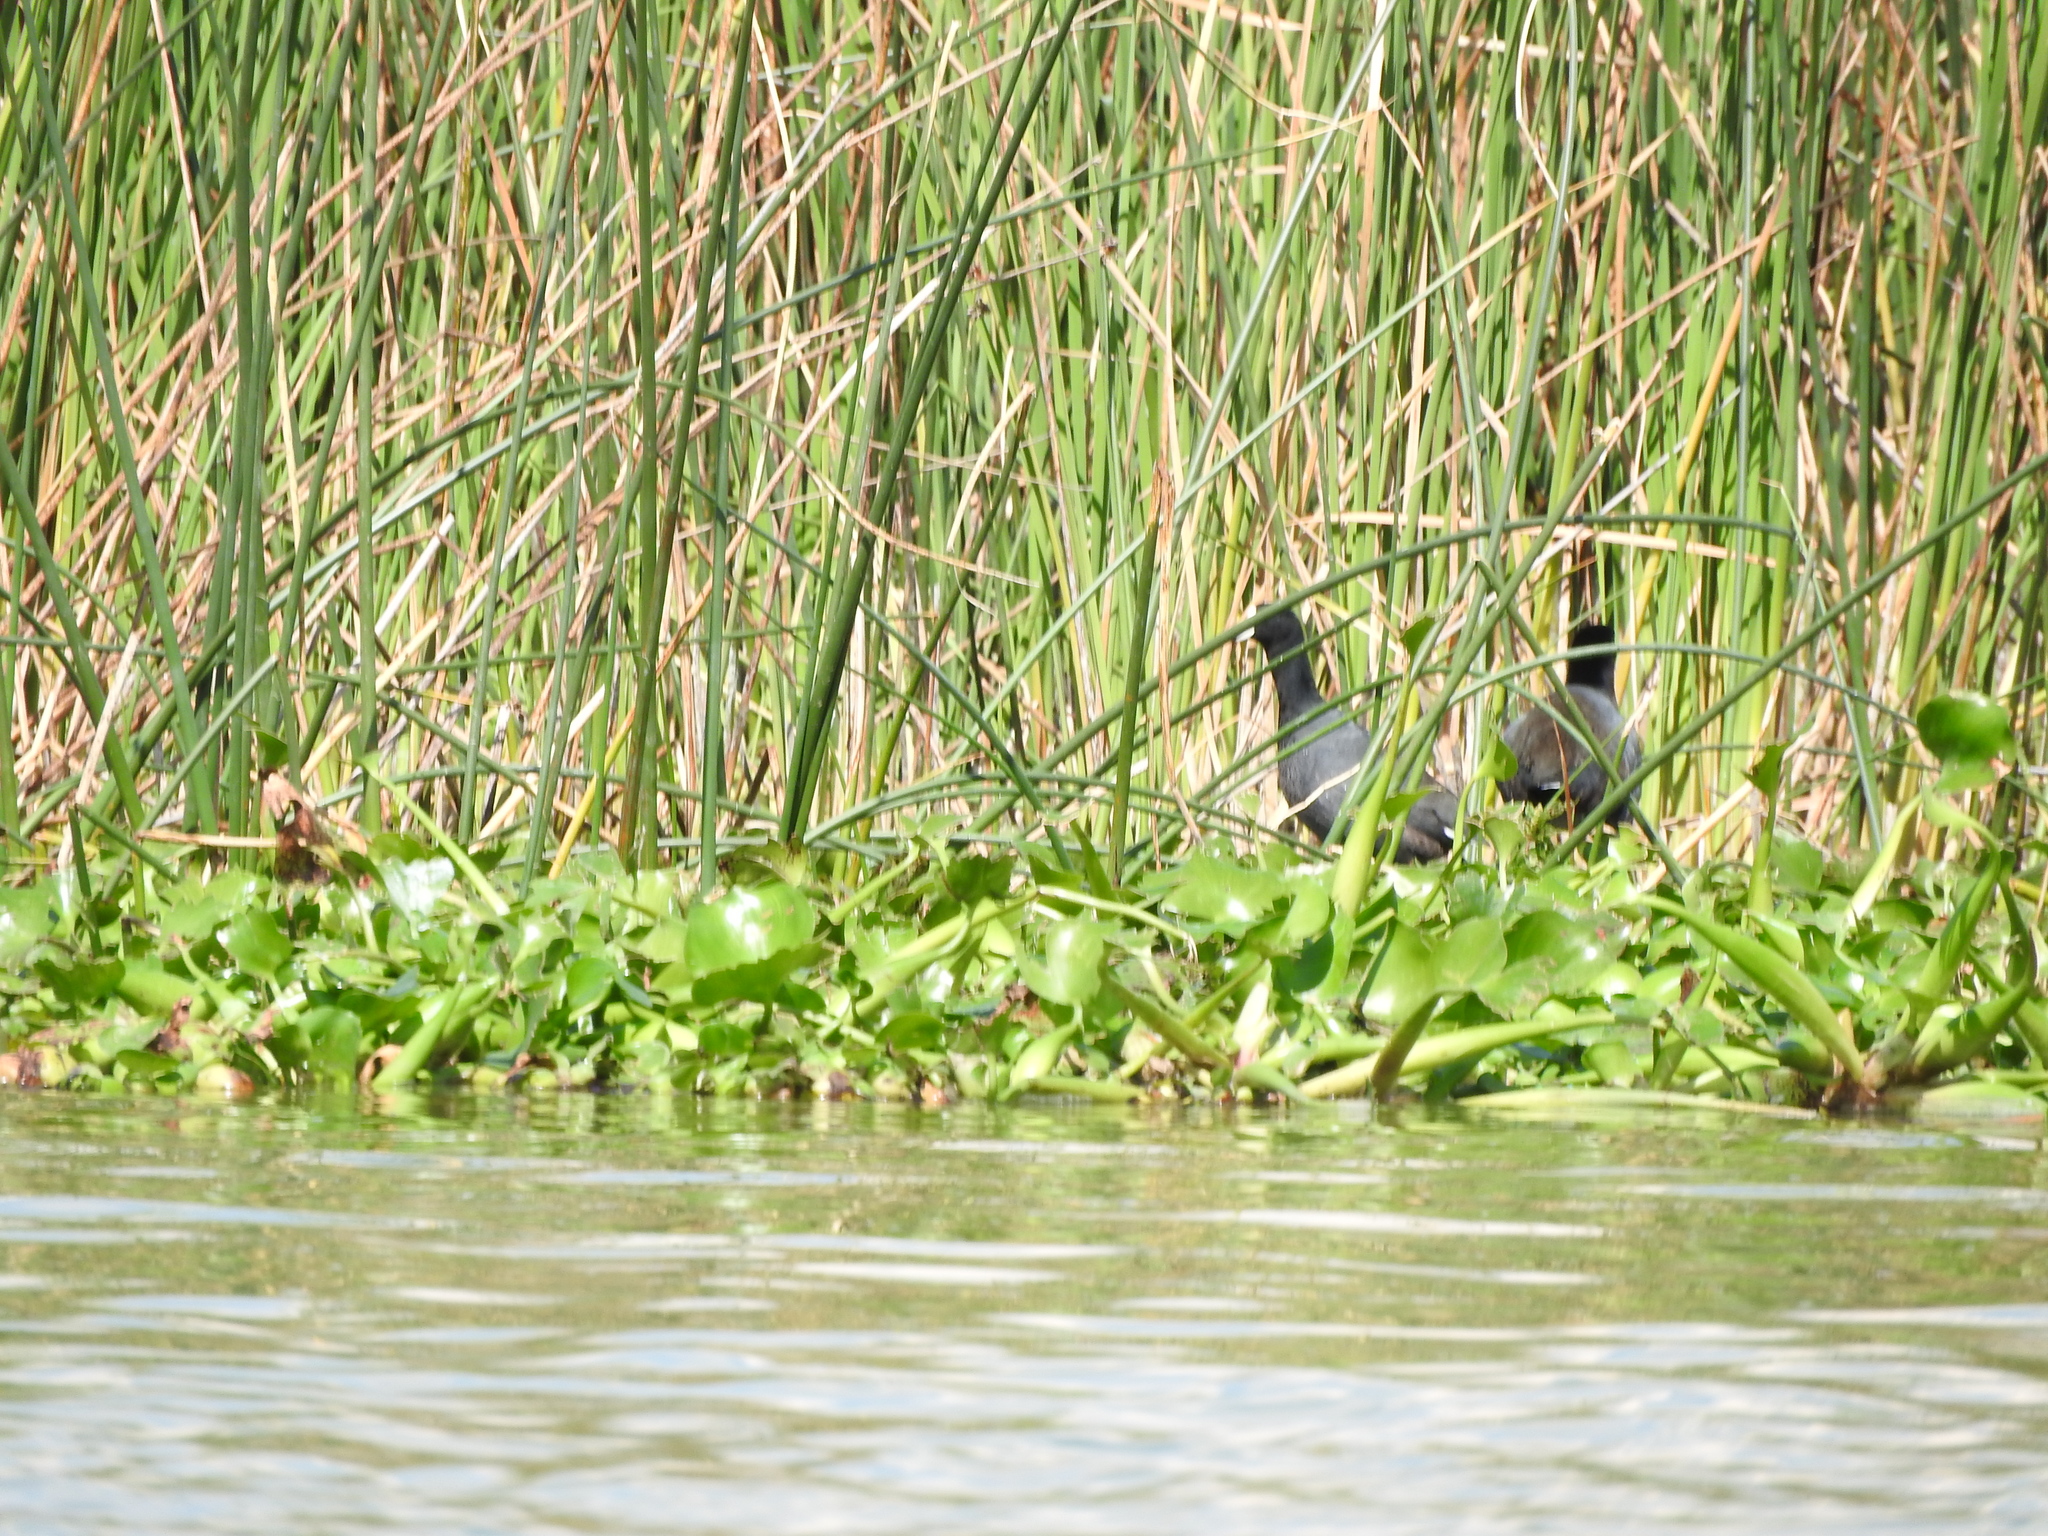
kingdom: Animalia
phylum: Chordata
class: Aves
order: Gruiformes
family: Rallidae
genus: Fulica
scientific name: Fulica americana
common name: American coot
